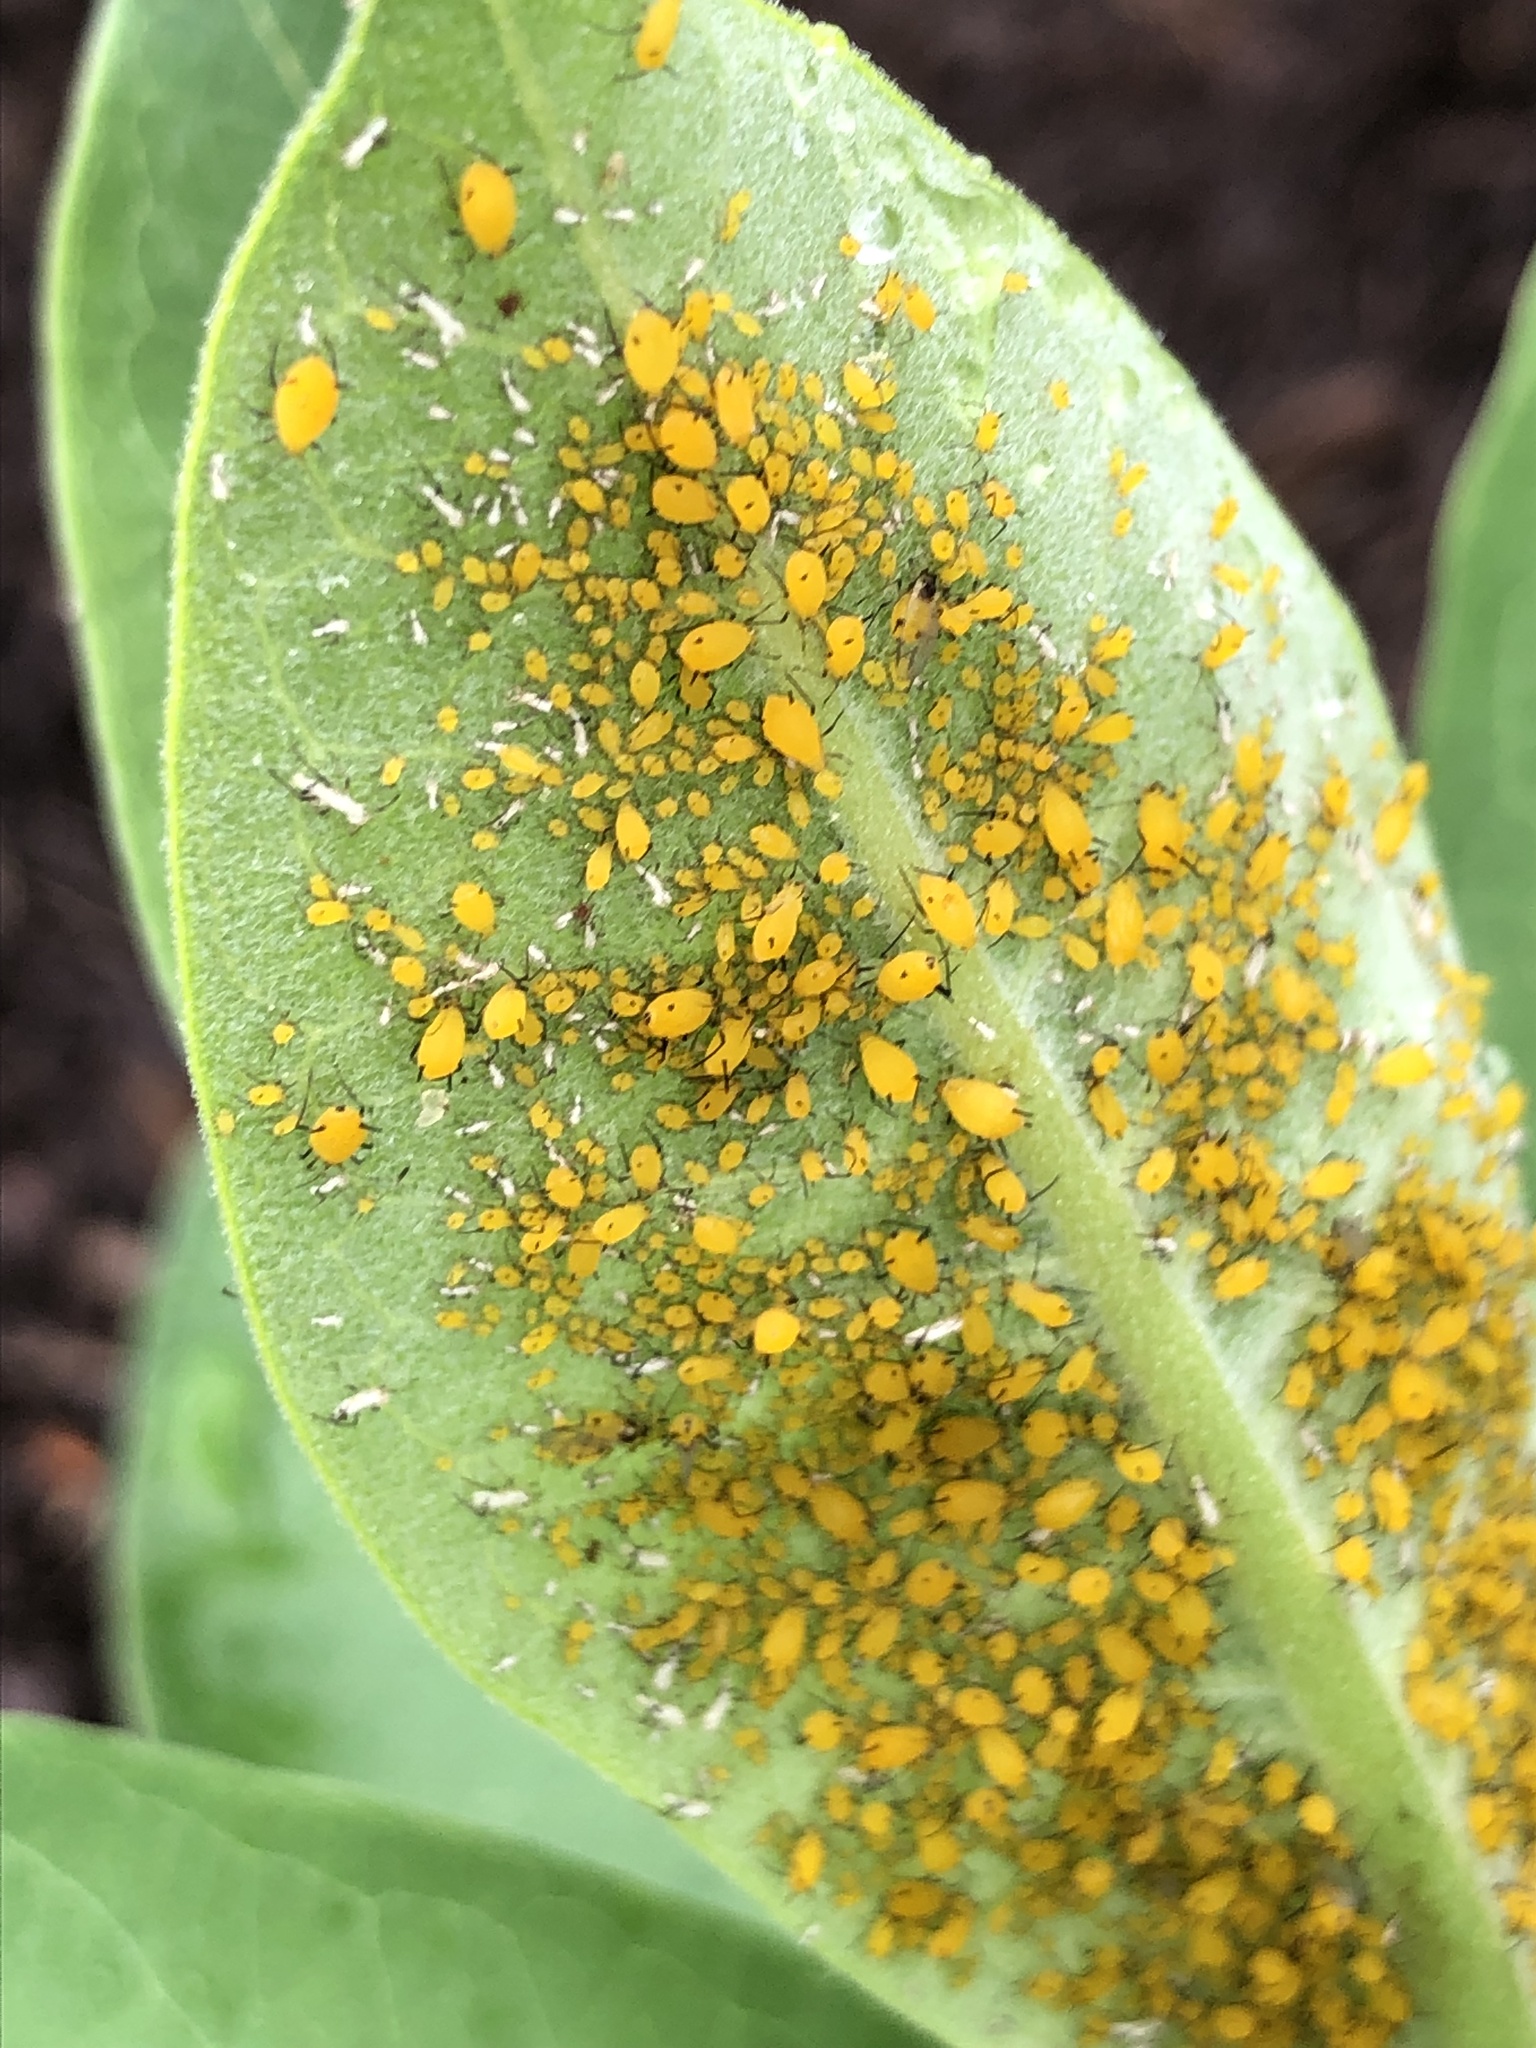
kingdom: Animalia
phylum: Arthropoda
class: Insecta
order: Hemiptera
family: Aphididae
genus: Aphis
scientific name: Aphis nerii
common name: Oleander aphid
